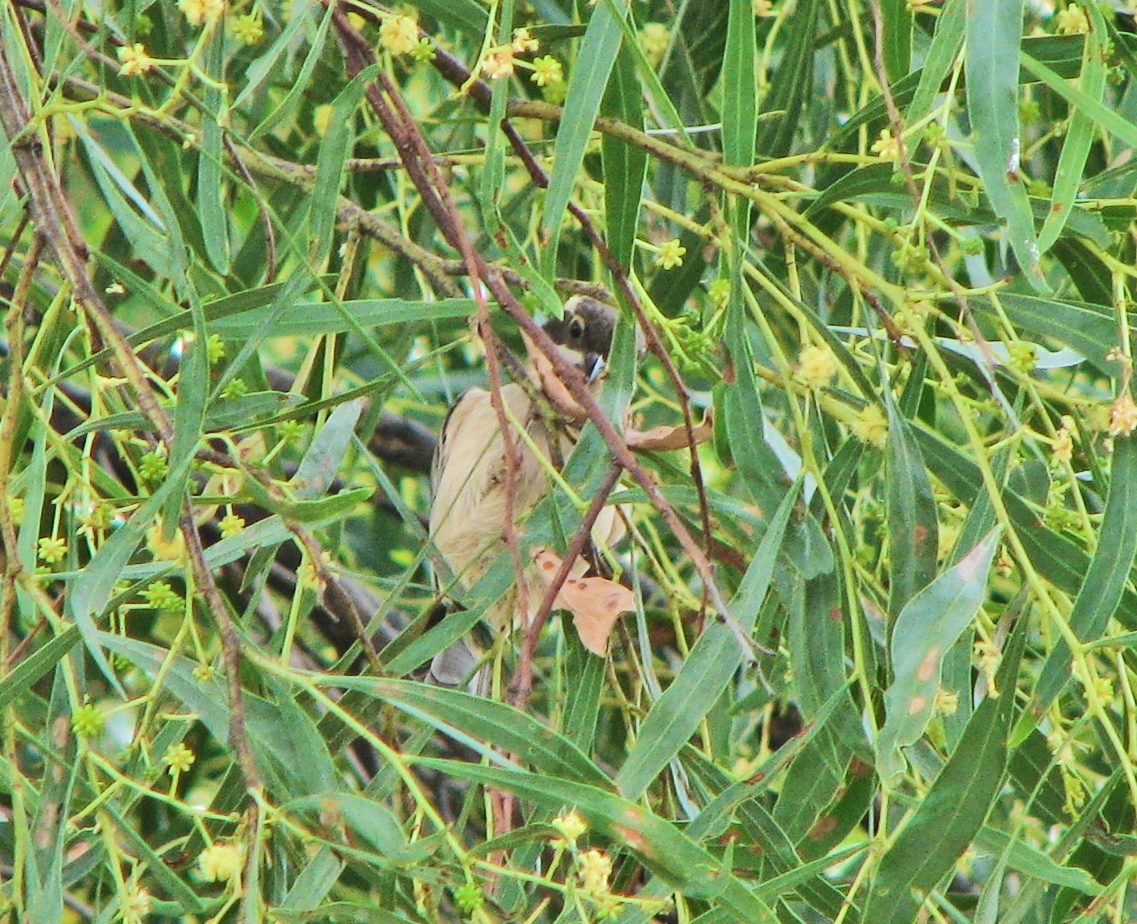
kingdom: Animalia
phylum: Chordata
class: Aves
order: Passeriformes
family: Meliphagidae
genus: Melithreptus
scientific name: Melithreptus brevirostris
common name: Brown-headed honeyeater
